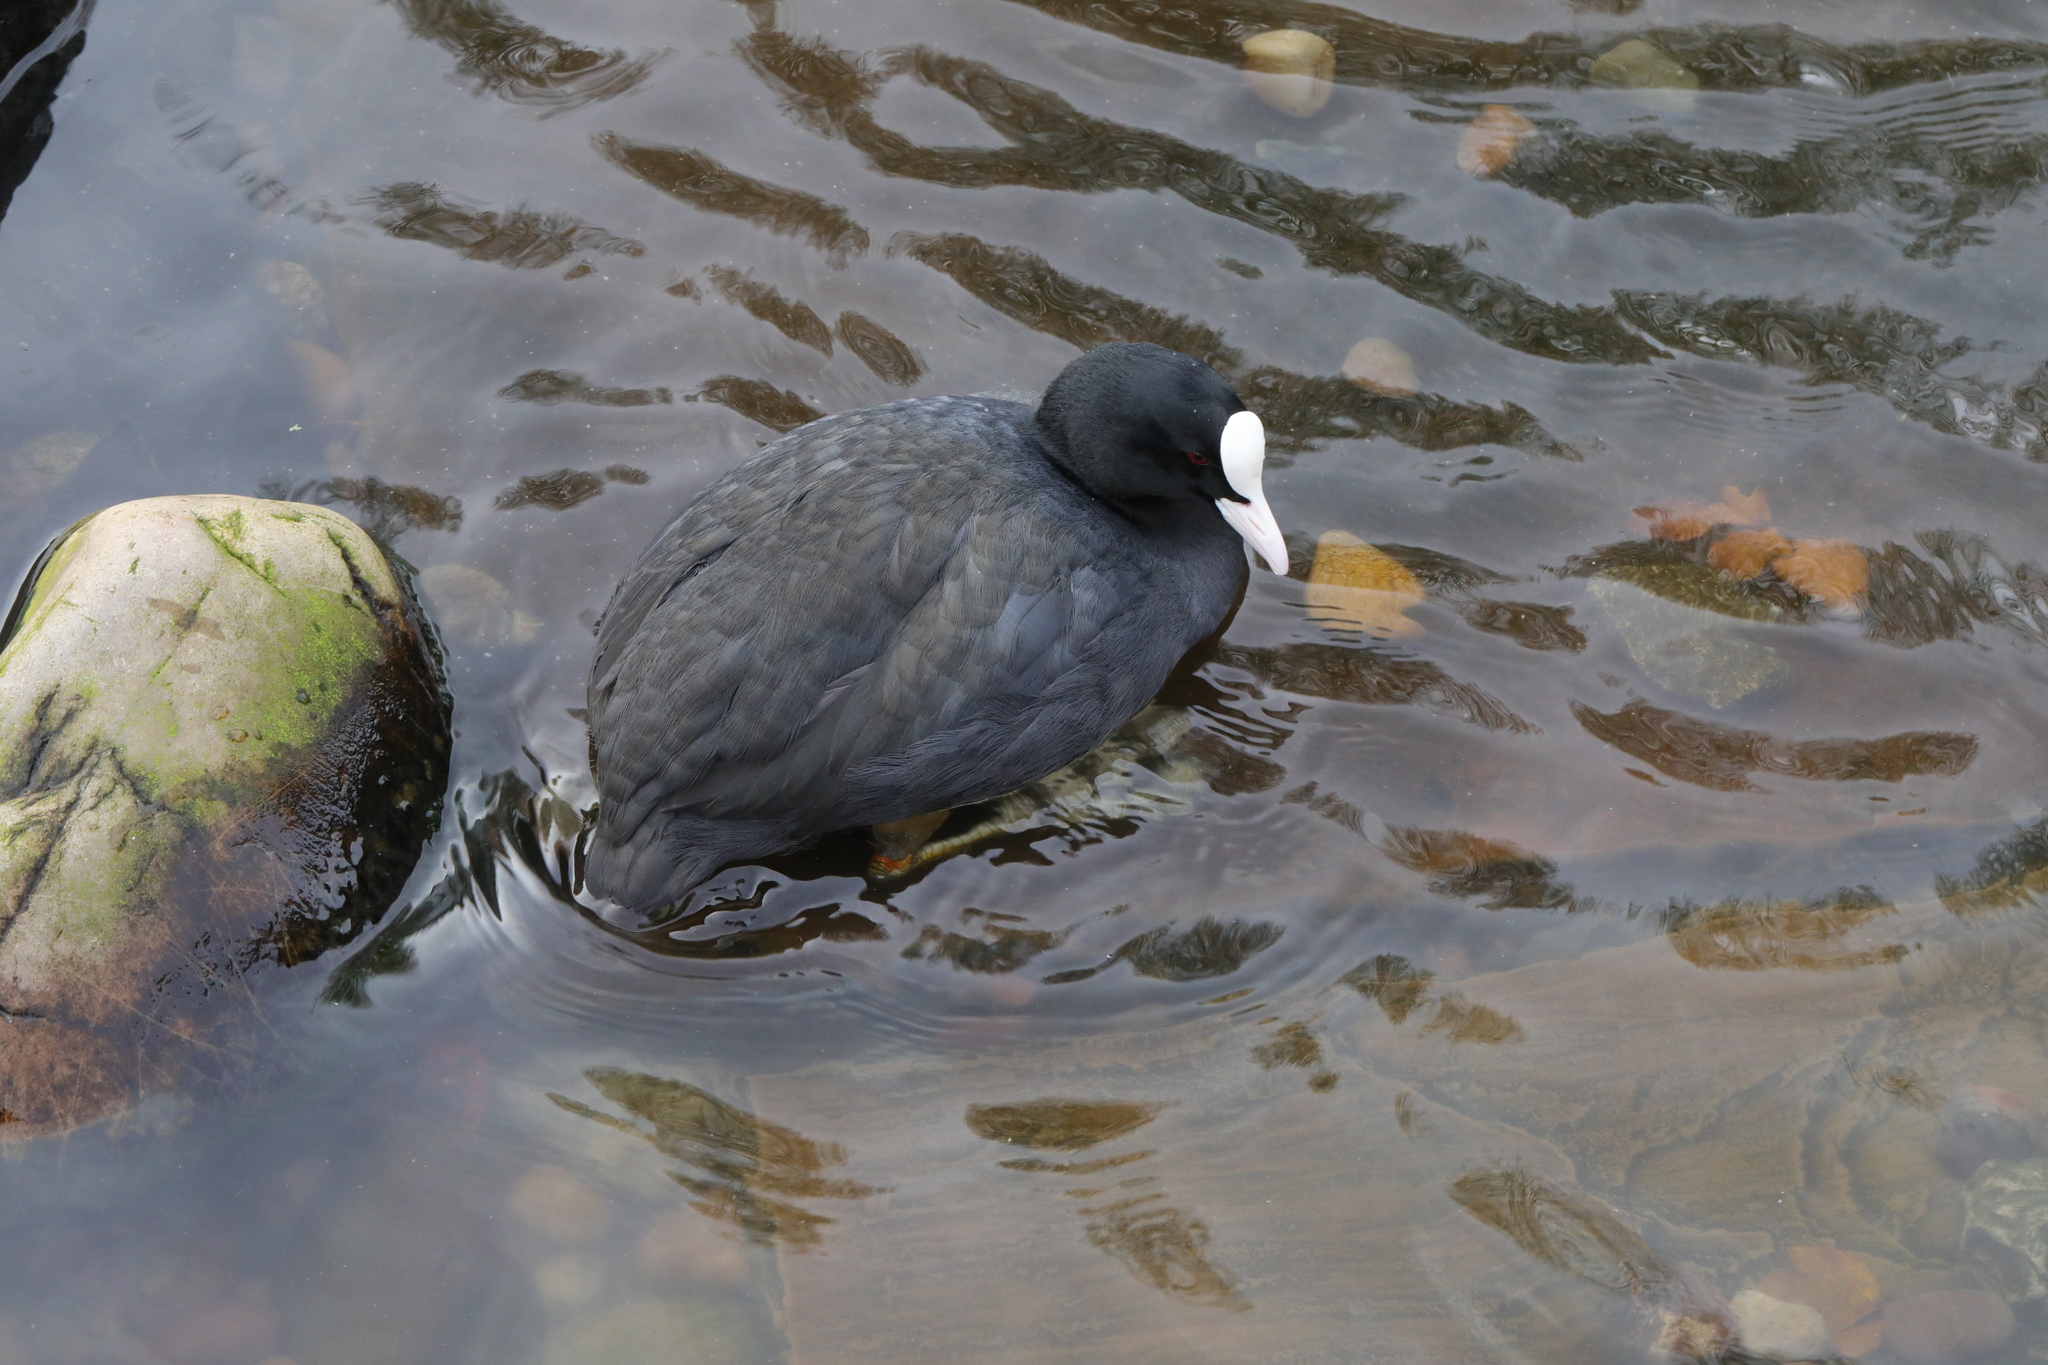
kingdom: Animalia
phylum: Chordata
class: Aves
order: Gruiformes
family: Rallidae
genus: Fulica
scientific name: Fulica atra
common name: Eurasian coot
